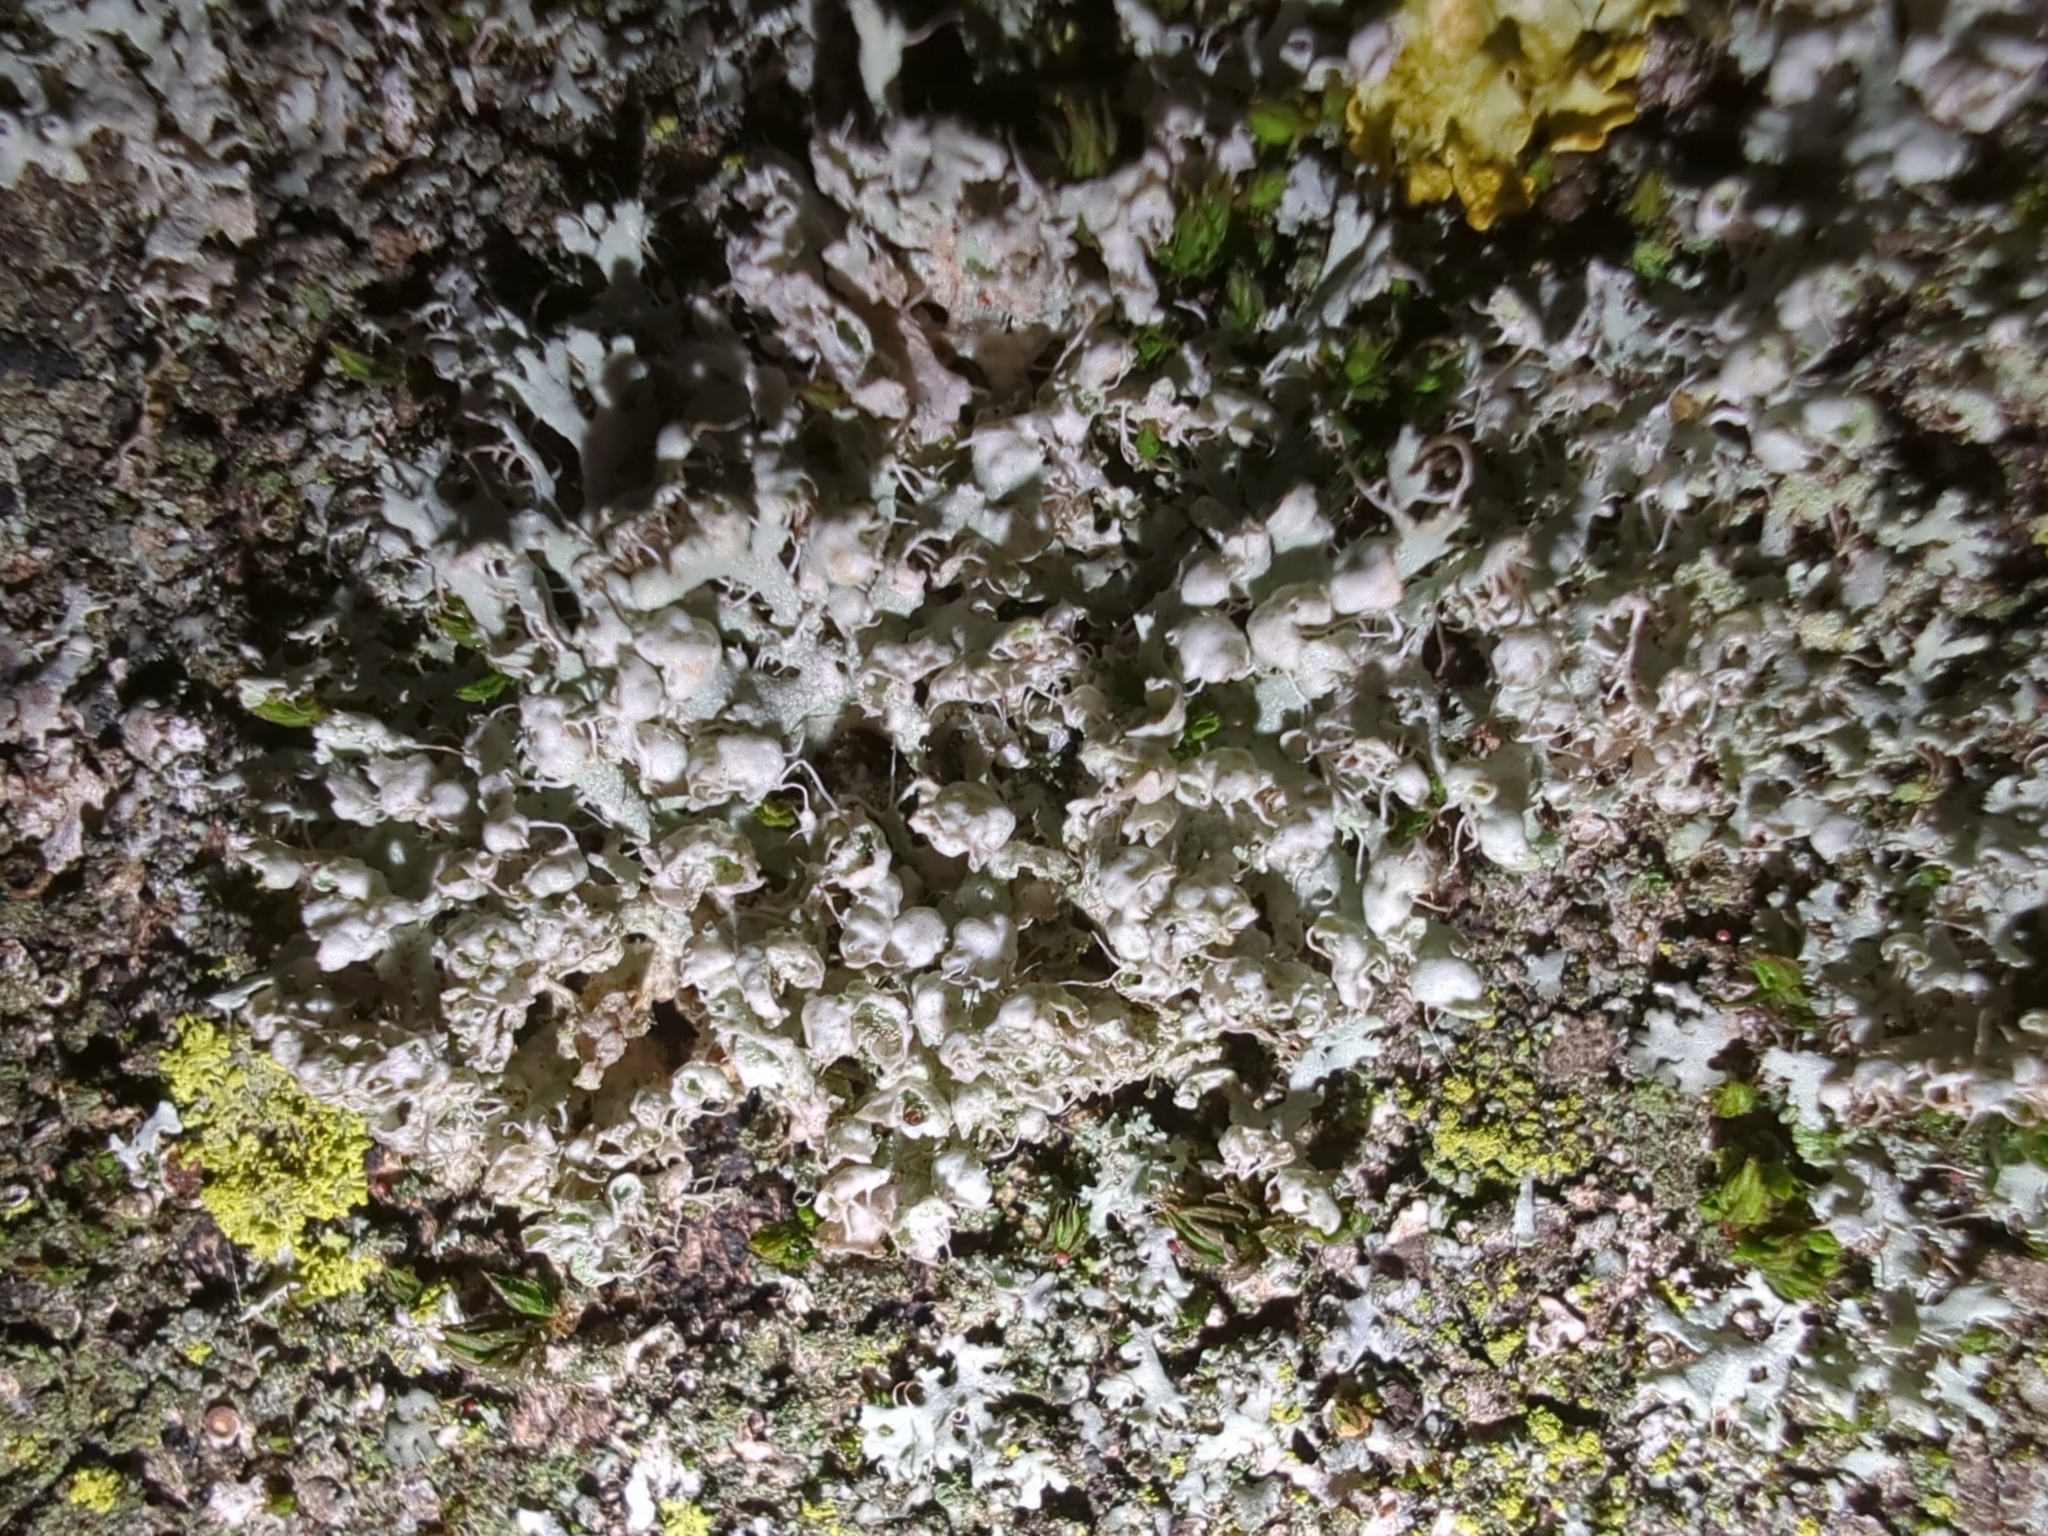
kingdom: Fungi
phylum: Ascomycota
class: Lecanoromycetes
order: Caliciales
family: Physciaceae
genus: Physcia
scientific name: Physcia adscendens
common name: Hooded rosette lichen
